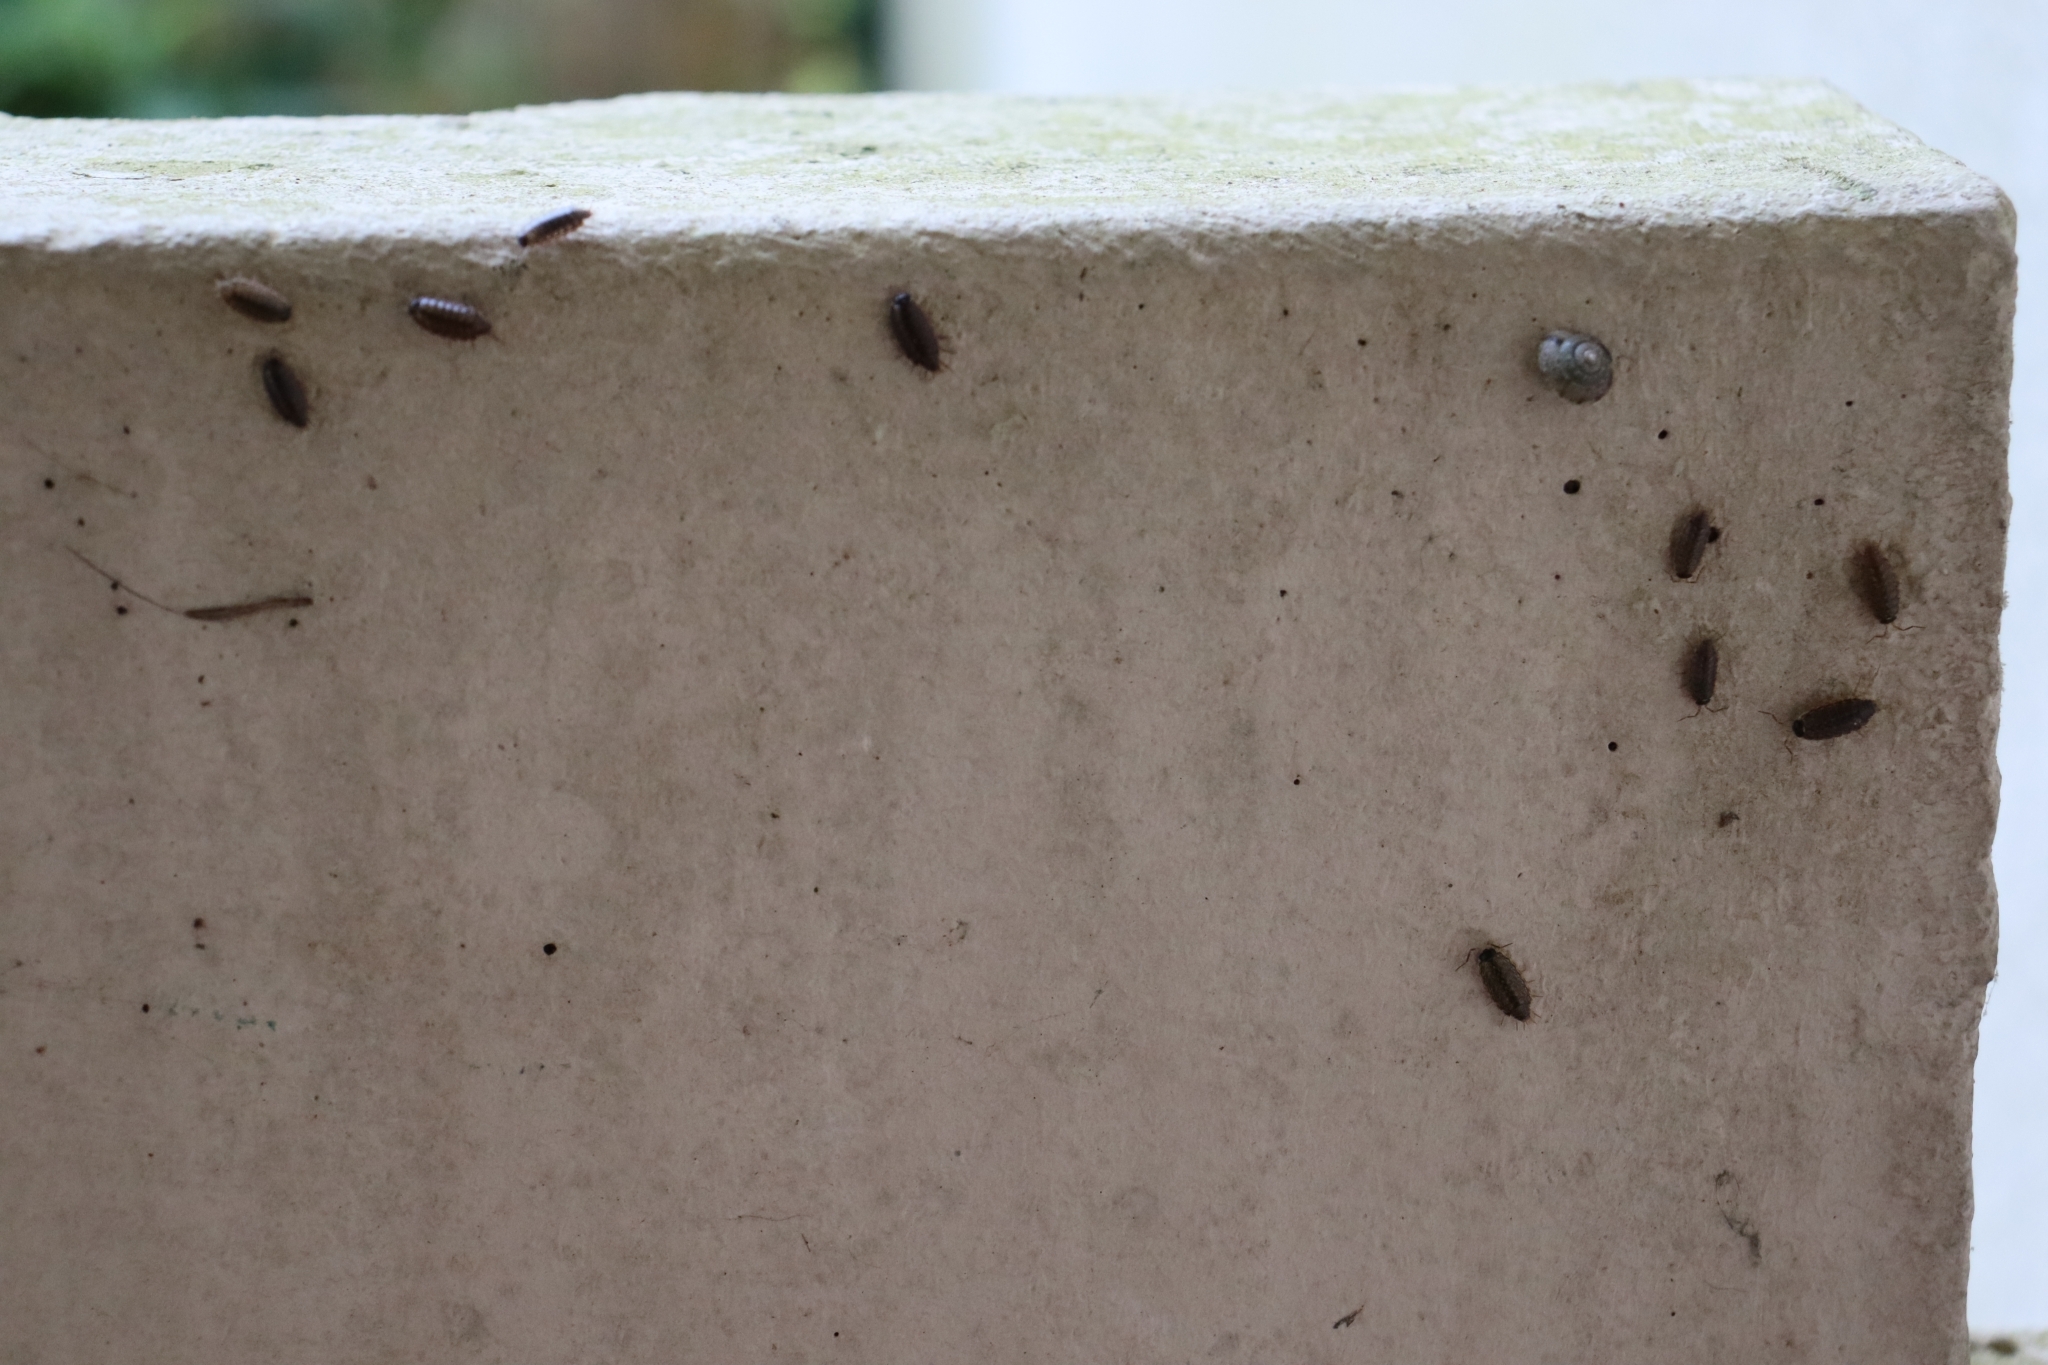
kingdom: Animalia
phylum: Arthropoda
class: Malacostraca
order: Isopoda
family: Philosciidae
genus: Philoscia
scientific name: Philoscia muscorum
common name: Common striped woodlouse
